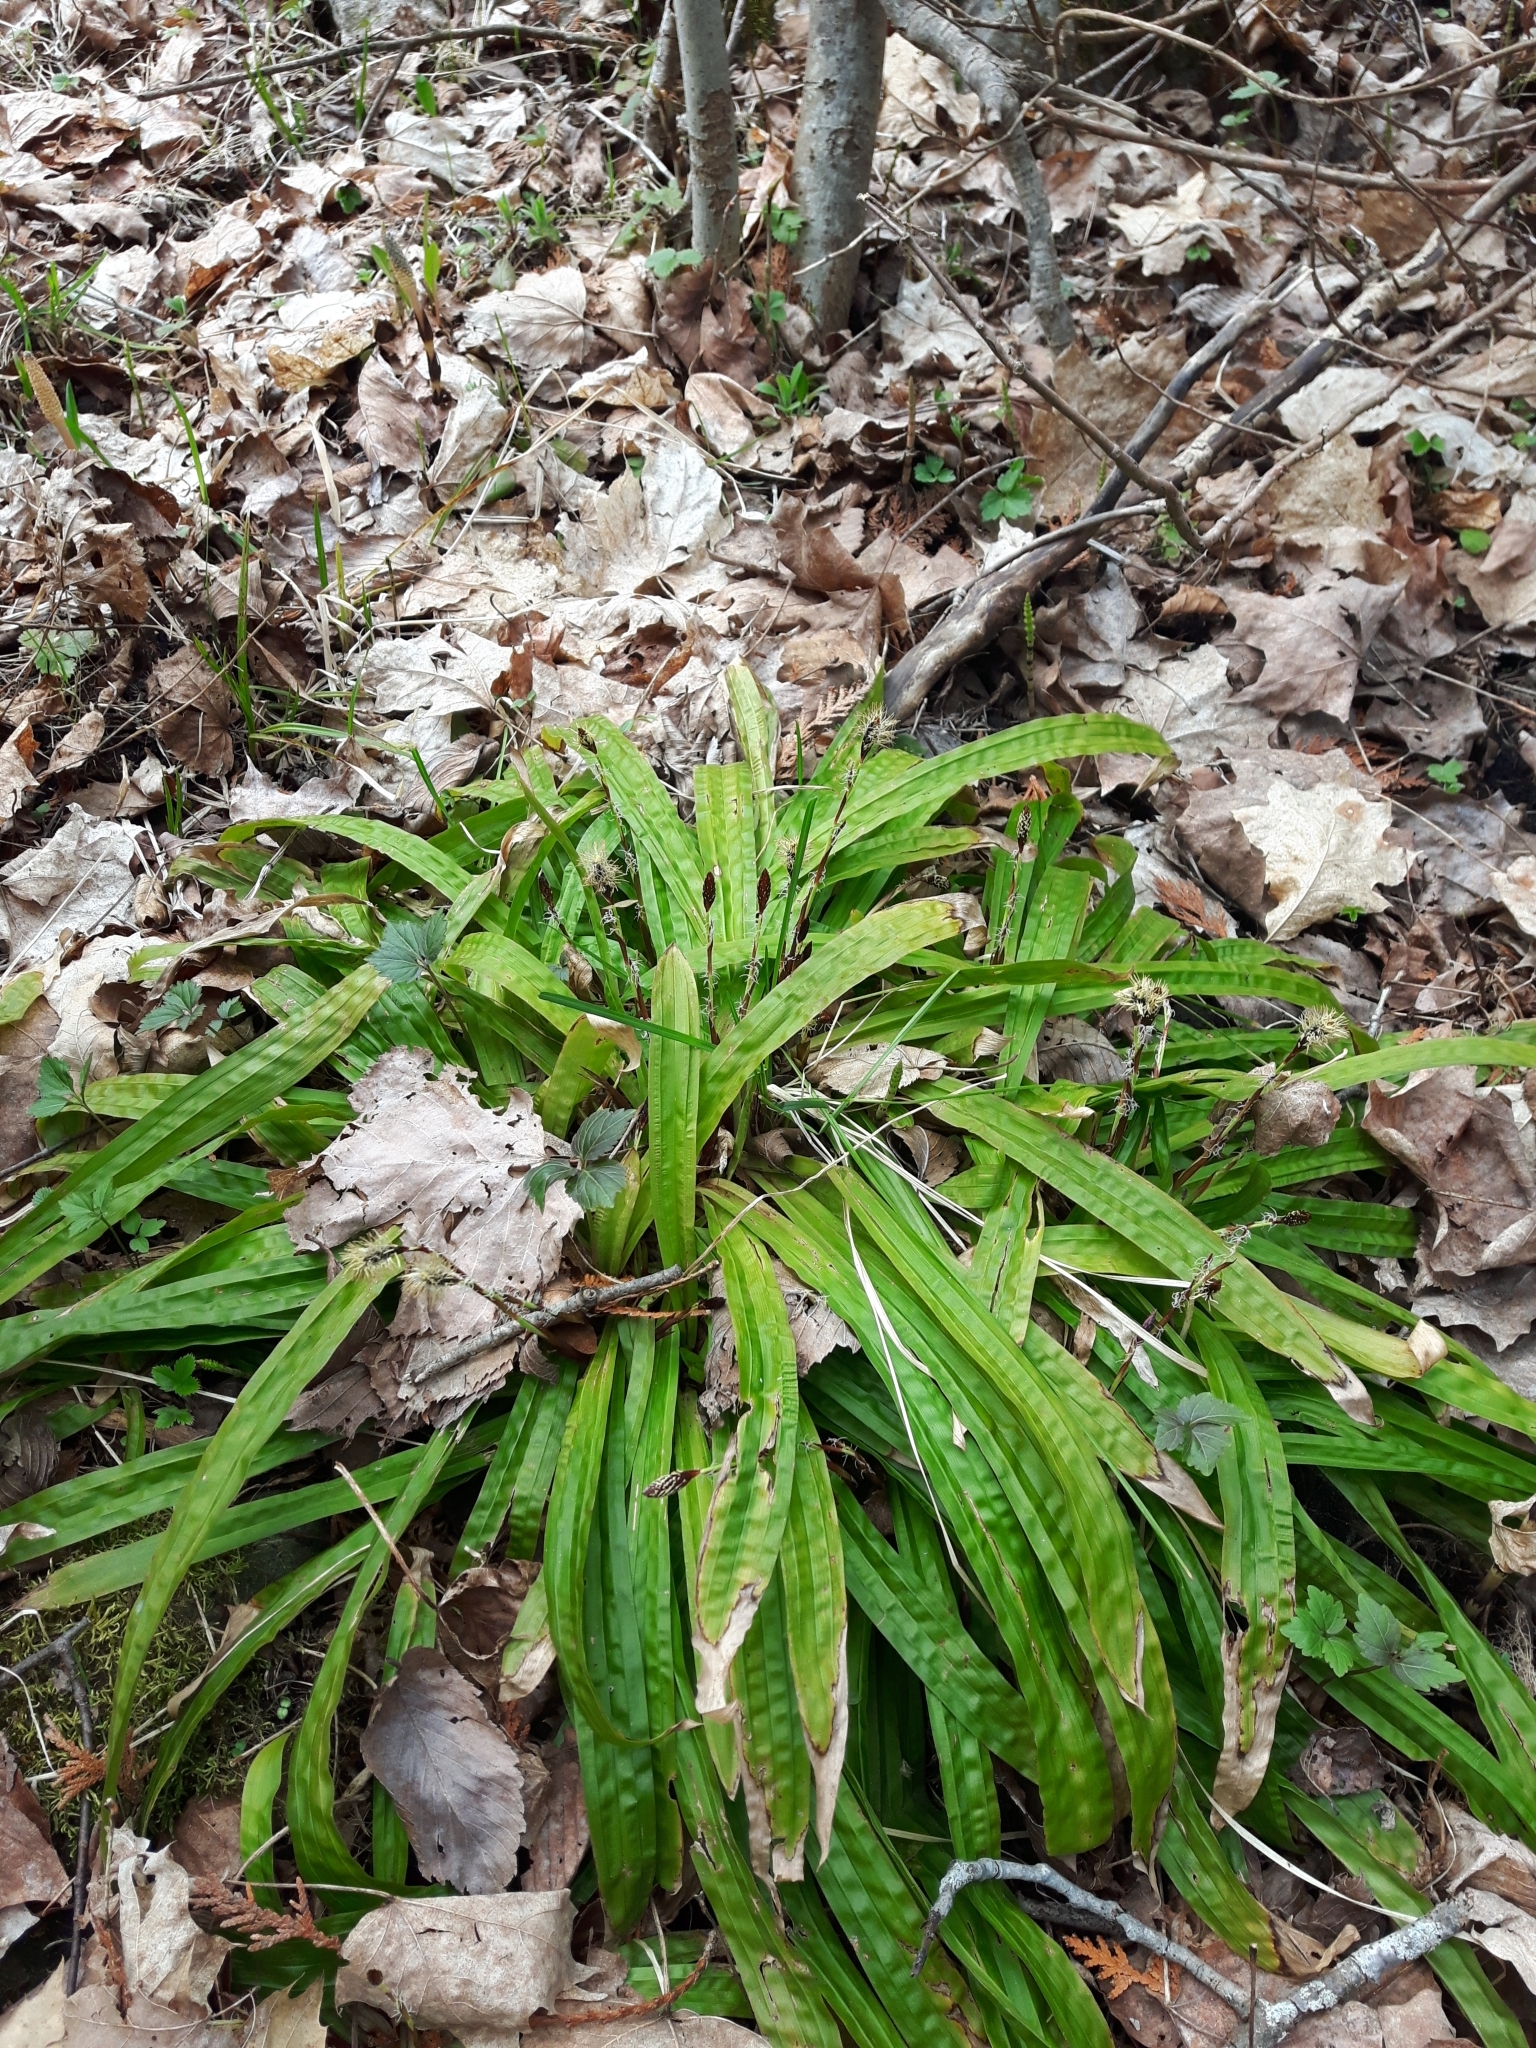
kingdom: Plantae
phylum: Tracheophyta
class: Liliopsida
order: Poales
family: Cyperaceae
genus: Carex
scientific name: Carex plantaginea
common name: Plantain-leaved sedge
